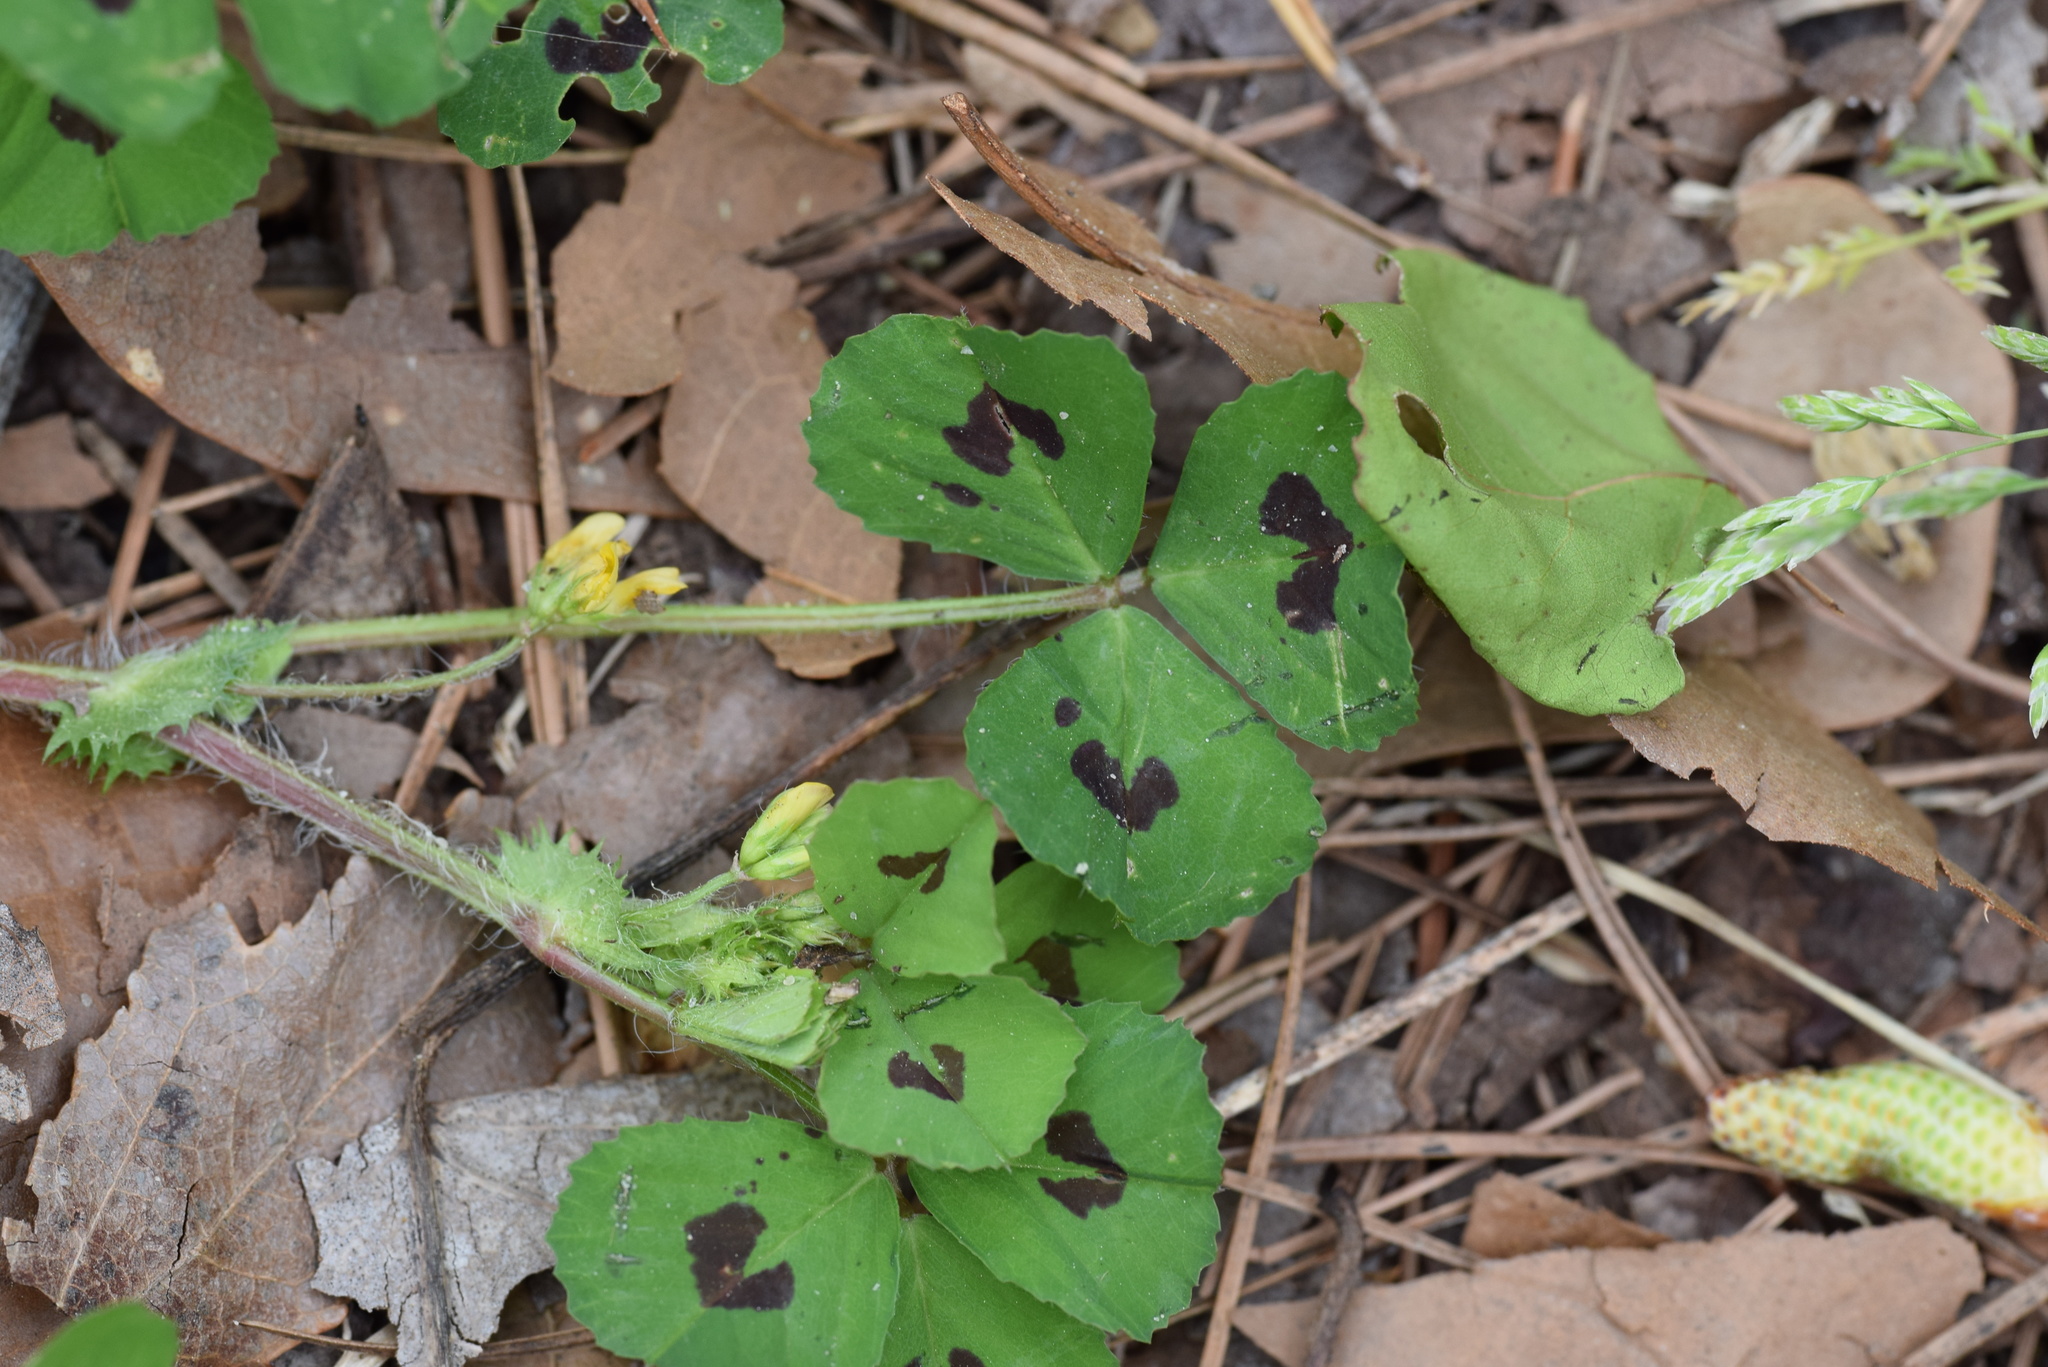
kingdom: Plantae
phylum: Tracheophyta
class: Magnoliopsida
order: Fabales
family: Fabaceae
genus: Medicago
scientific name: Medicago arabica
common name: Spotted medick
